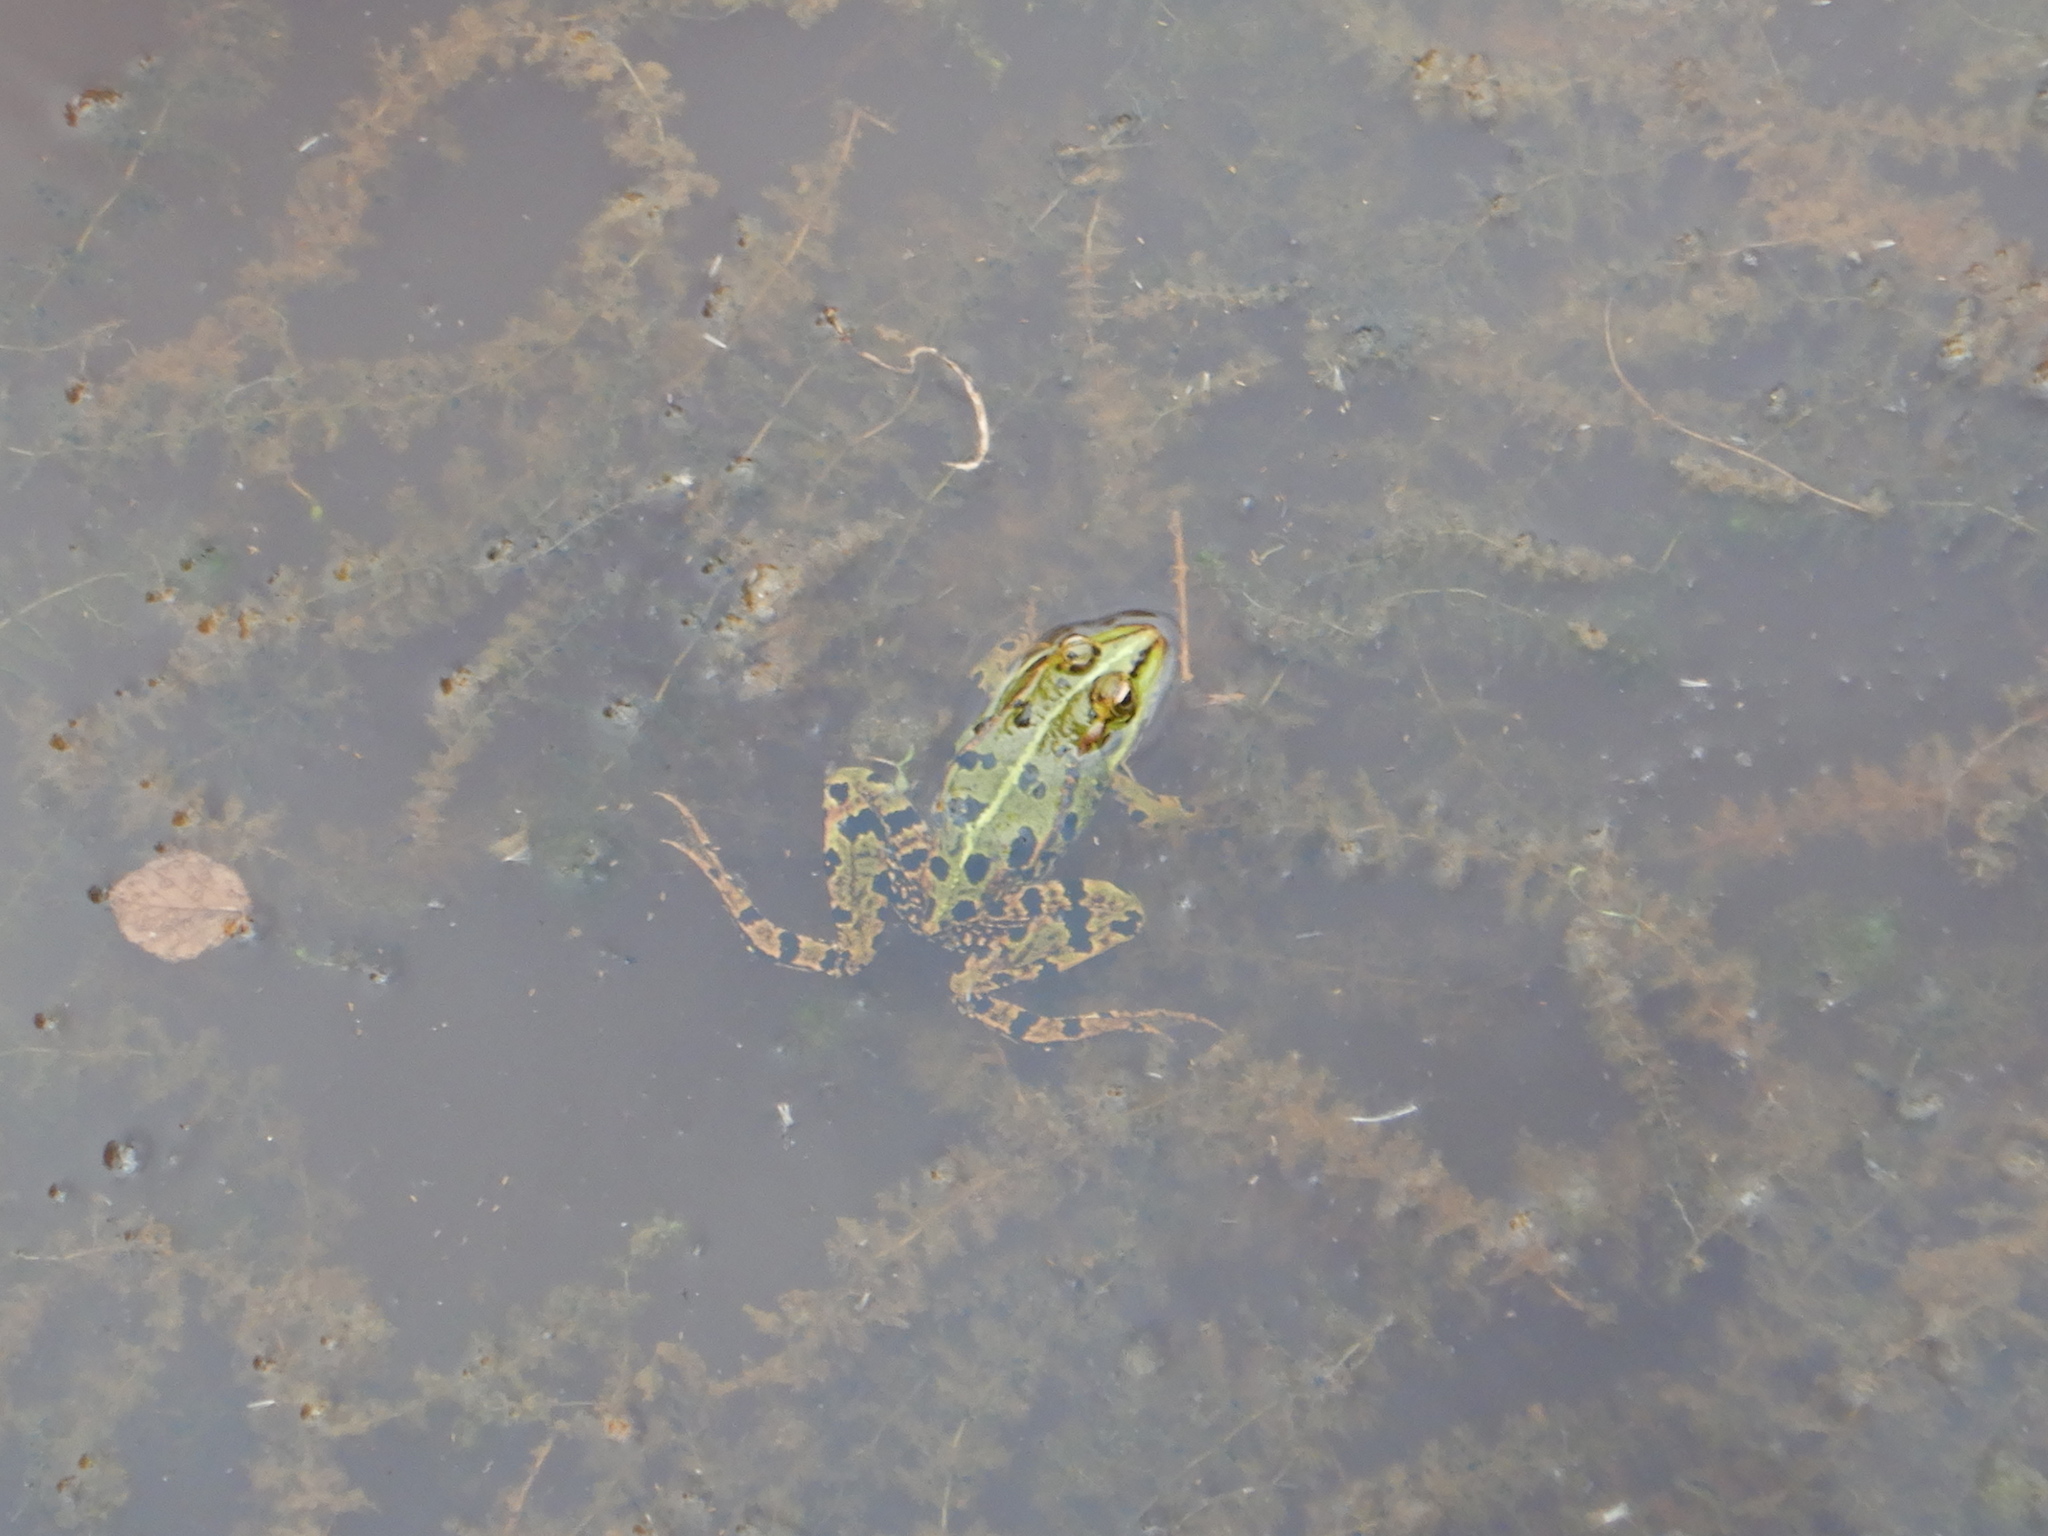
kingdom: Animalia
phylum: Chordata
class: Amphibia
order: Anura
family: Ranidae
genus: Pelophylax
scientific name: Pelophylax perezi
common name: Perez's frog
